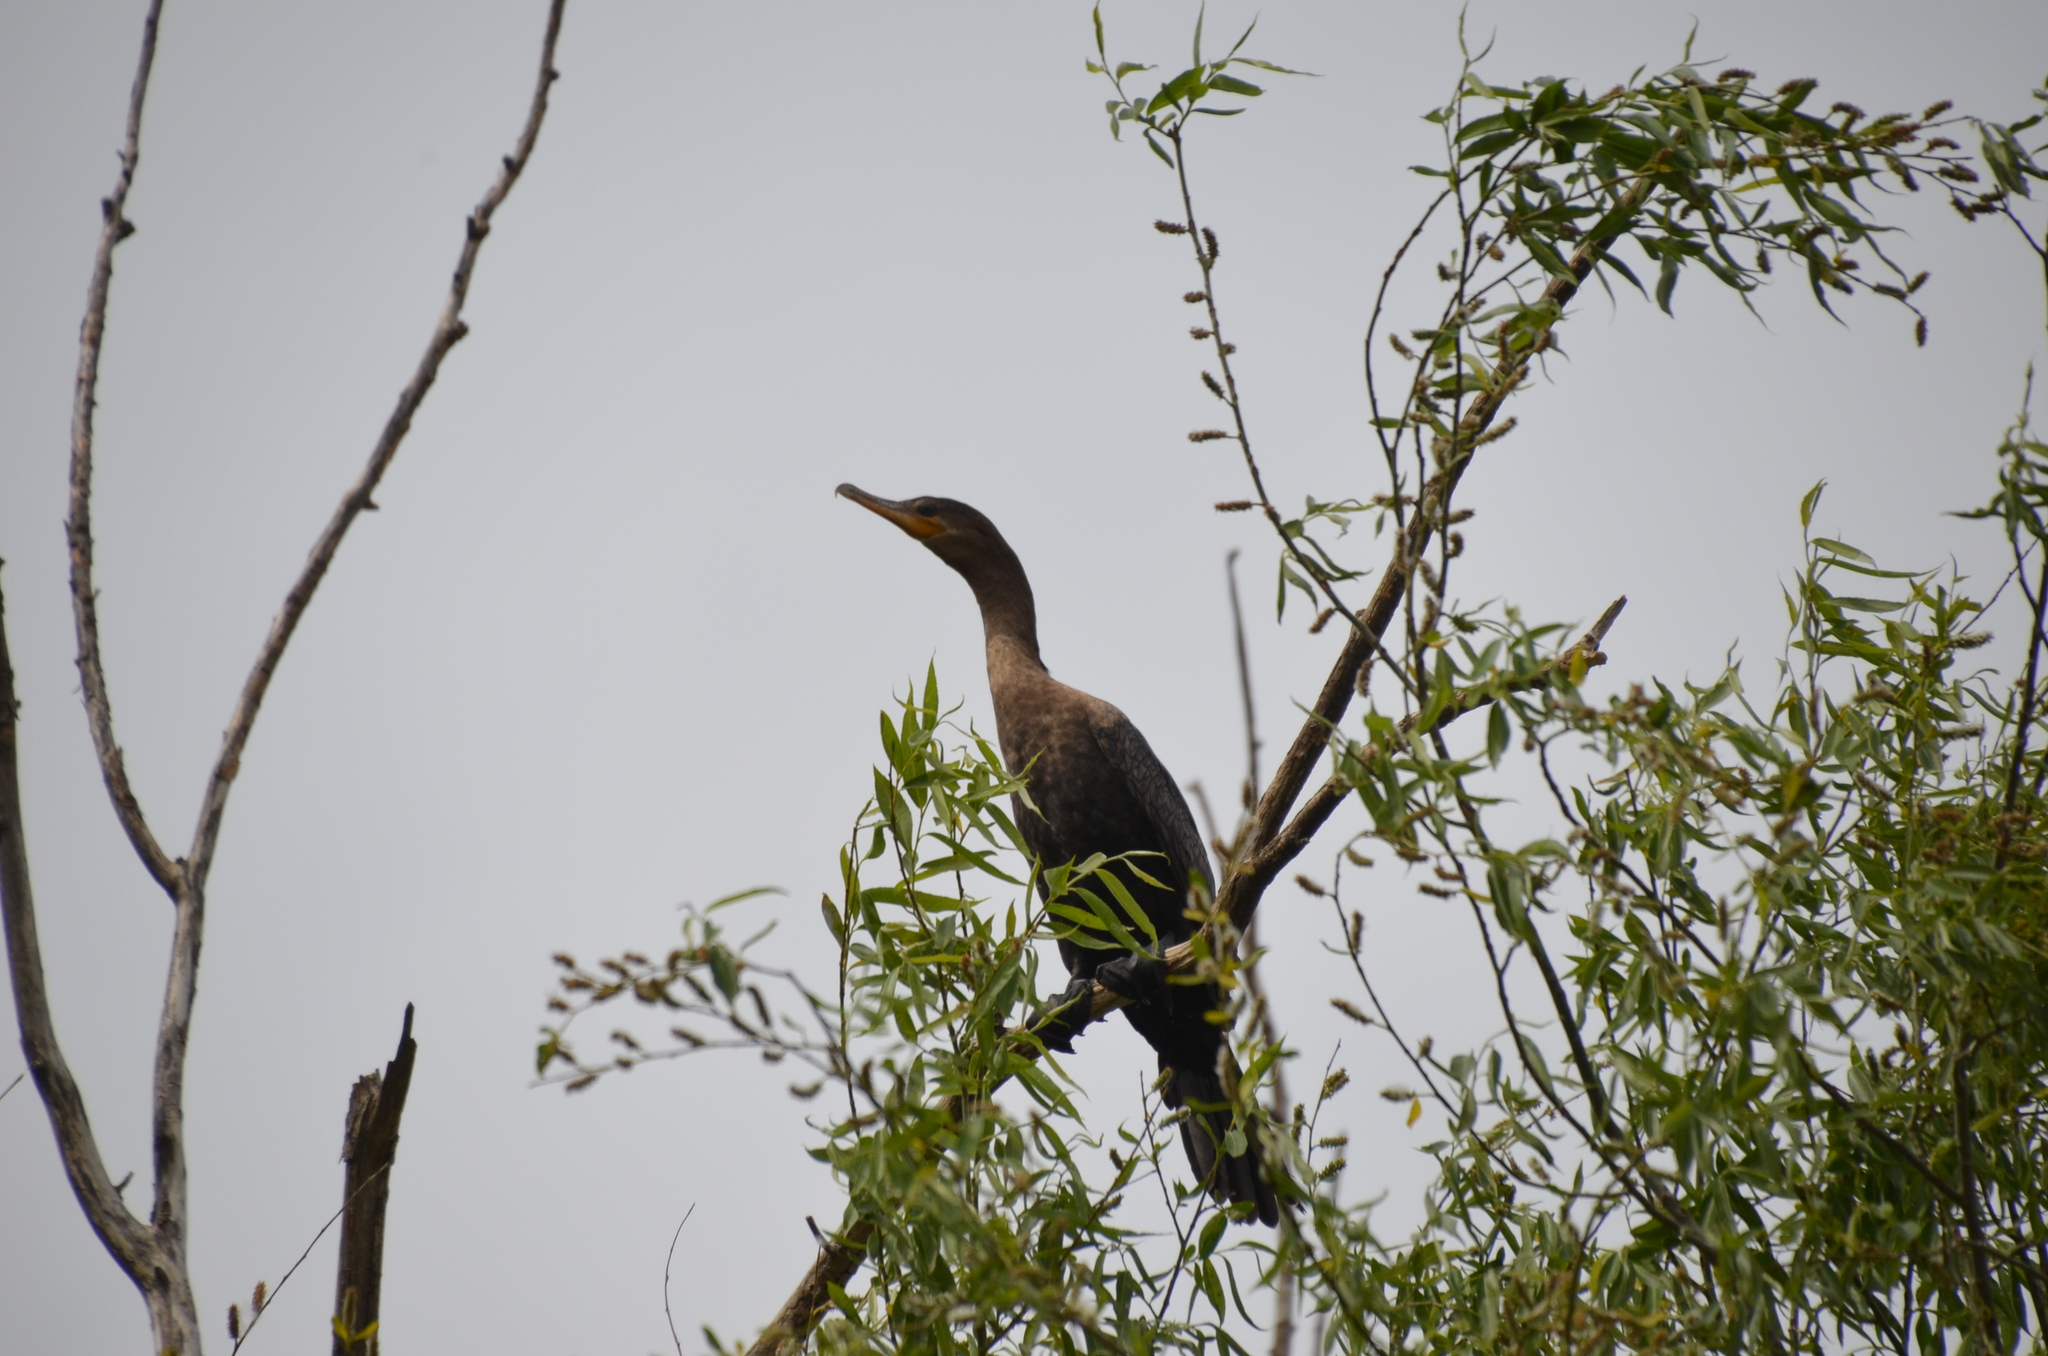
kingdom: Animalia
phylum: Chordata
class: Aves
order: Suliformes
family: Phalacrocoracidae
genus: Phalacrocorax
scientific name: Phalacrocorax brasilianus
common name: Neotropic cormorant
